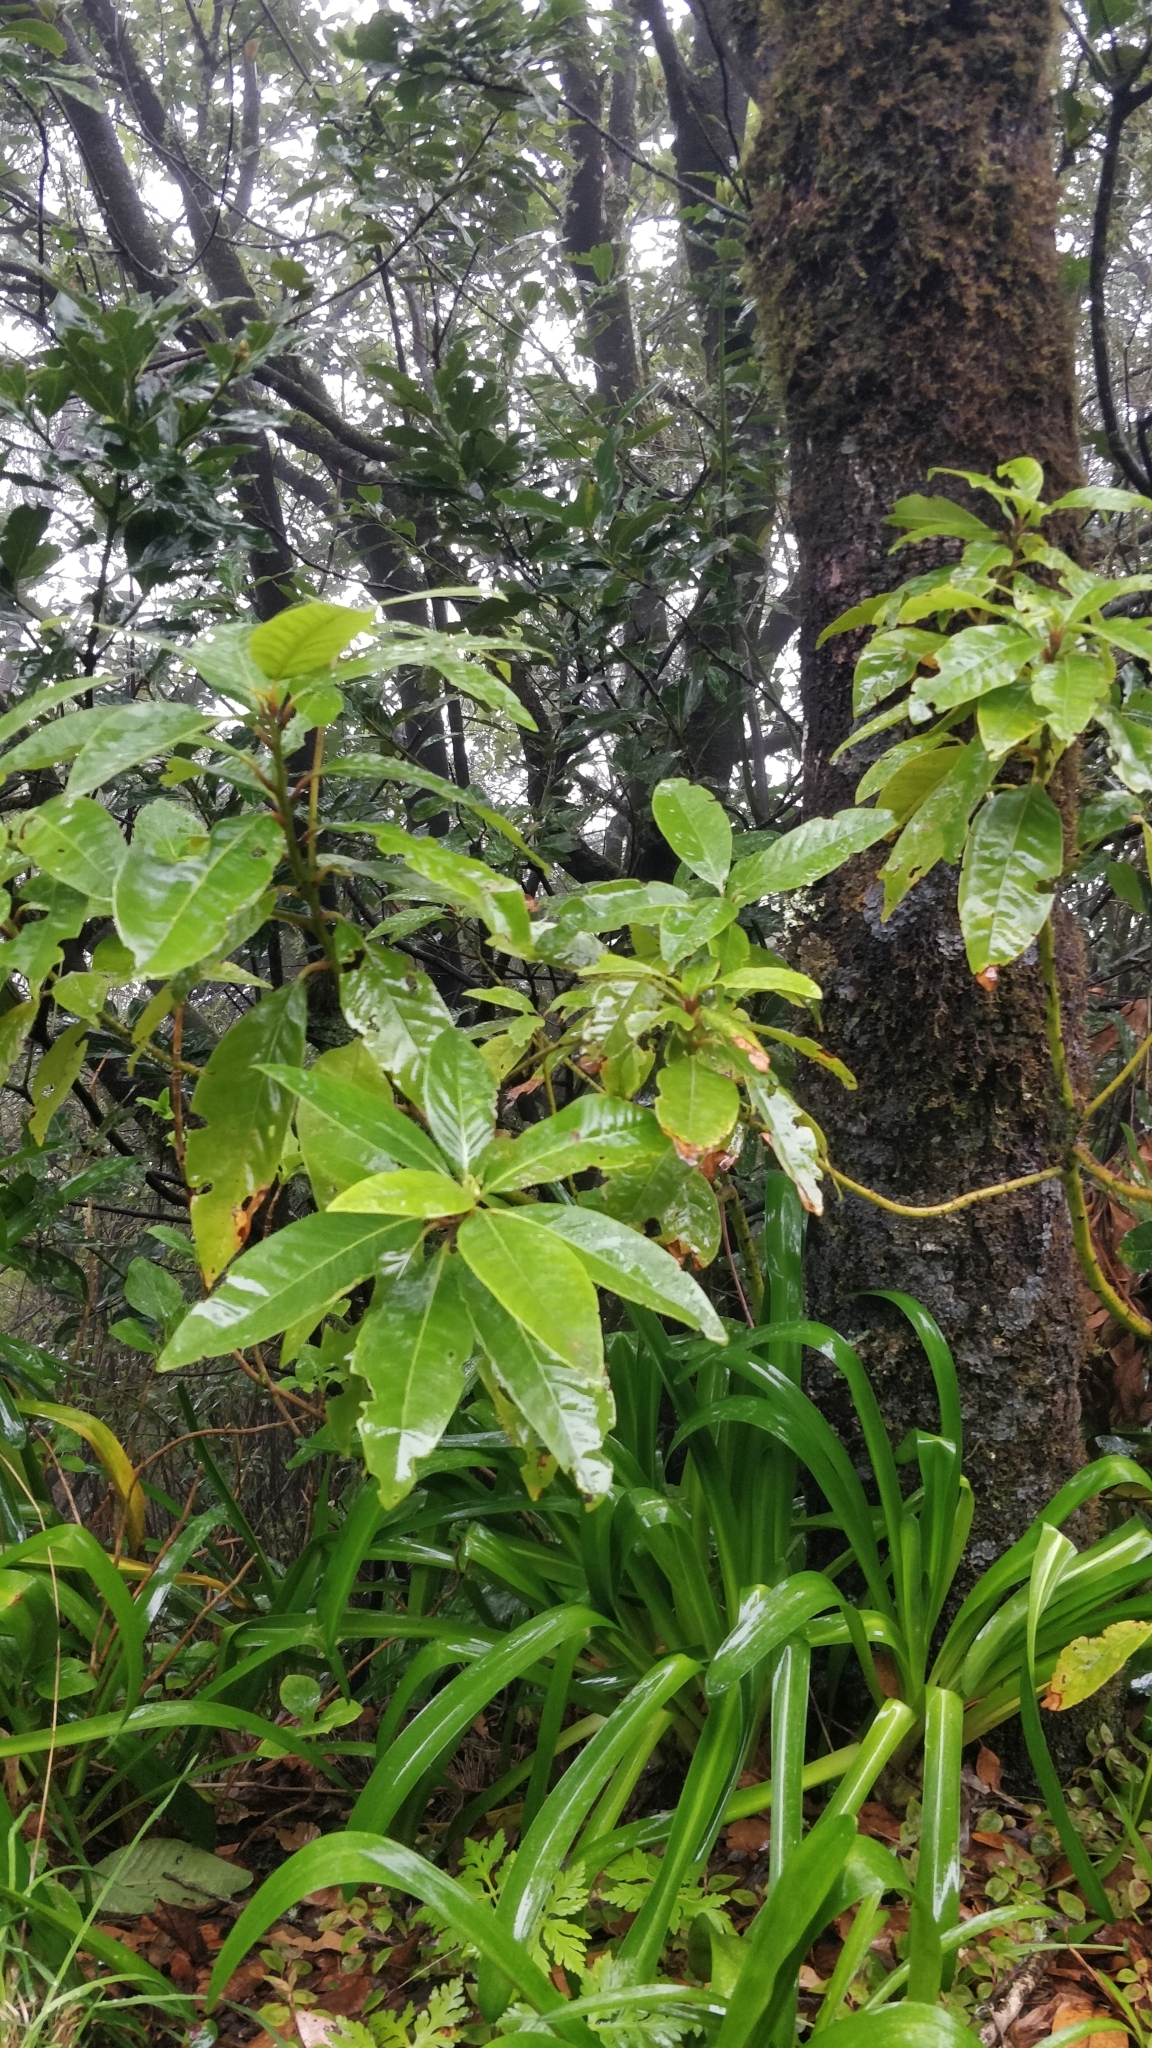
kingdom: Plantae
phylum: Tracheophyta
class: Magnoliopsida
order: Laurales
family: Lauraceae
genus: Persea
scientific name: Persea indica
